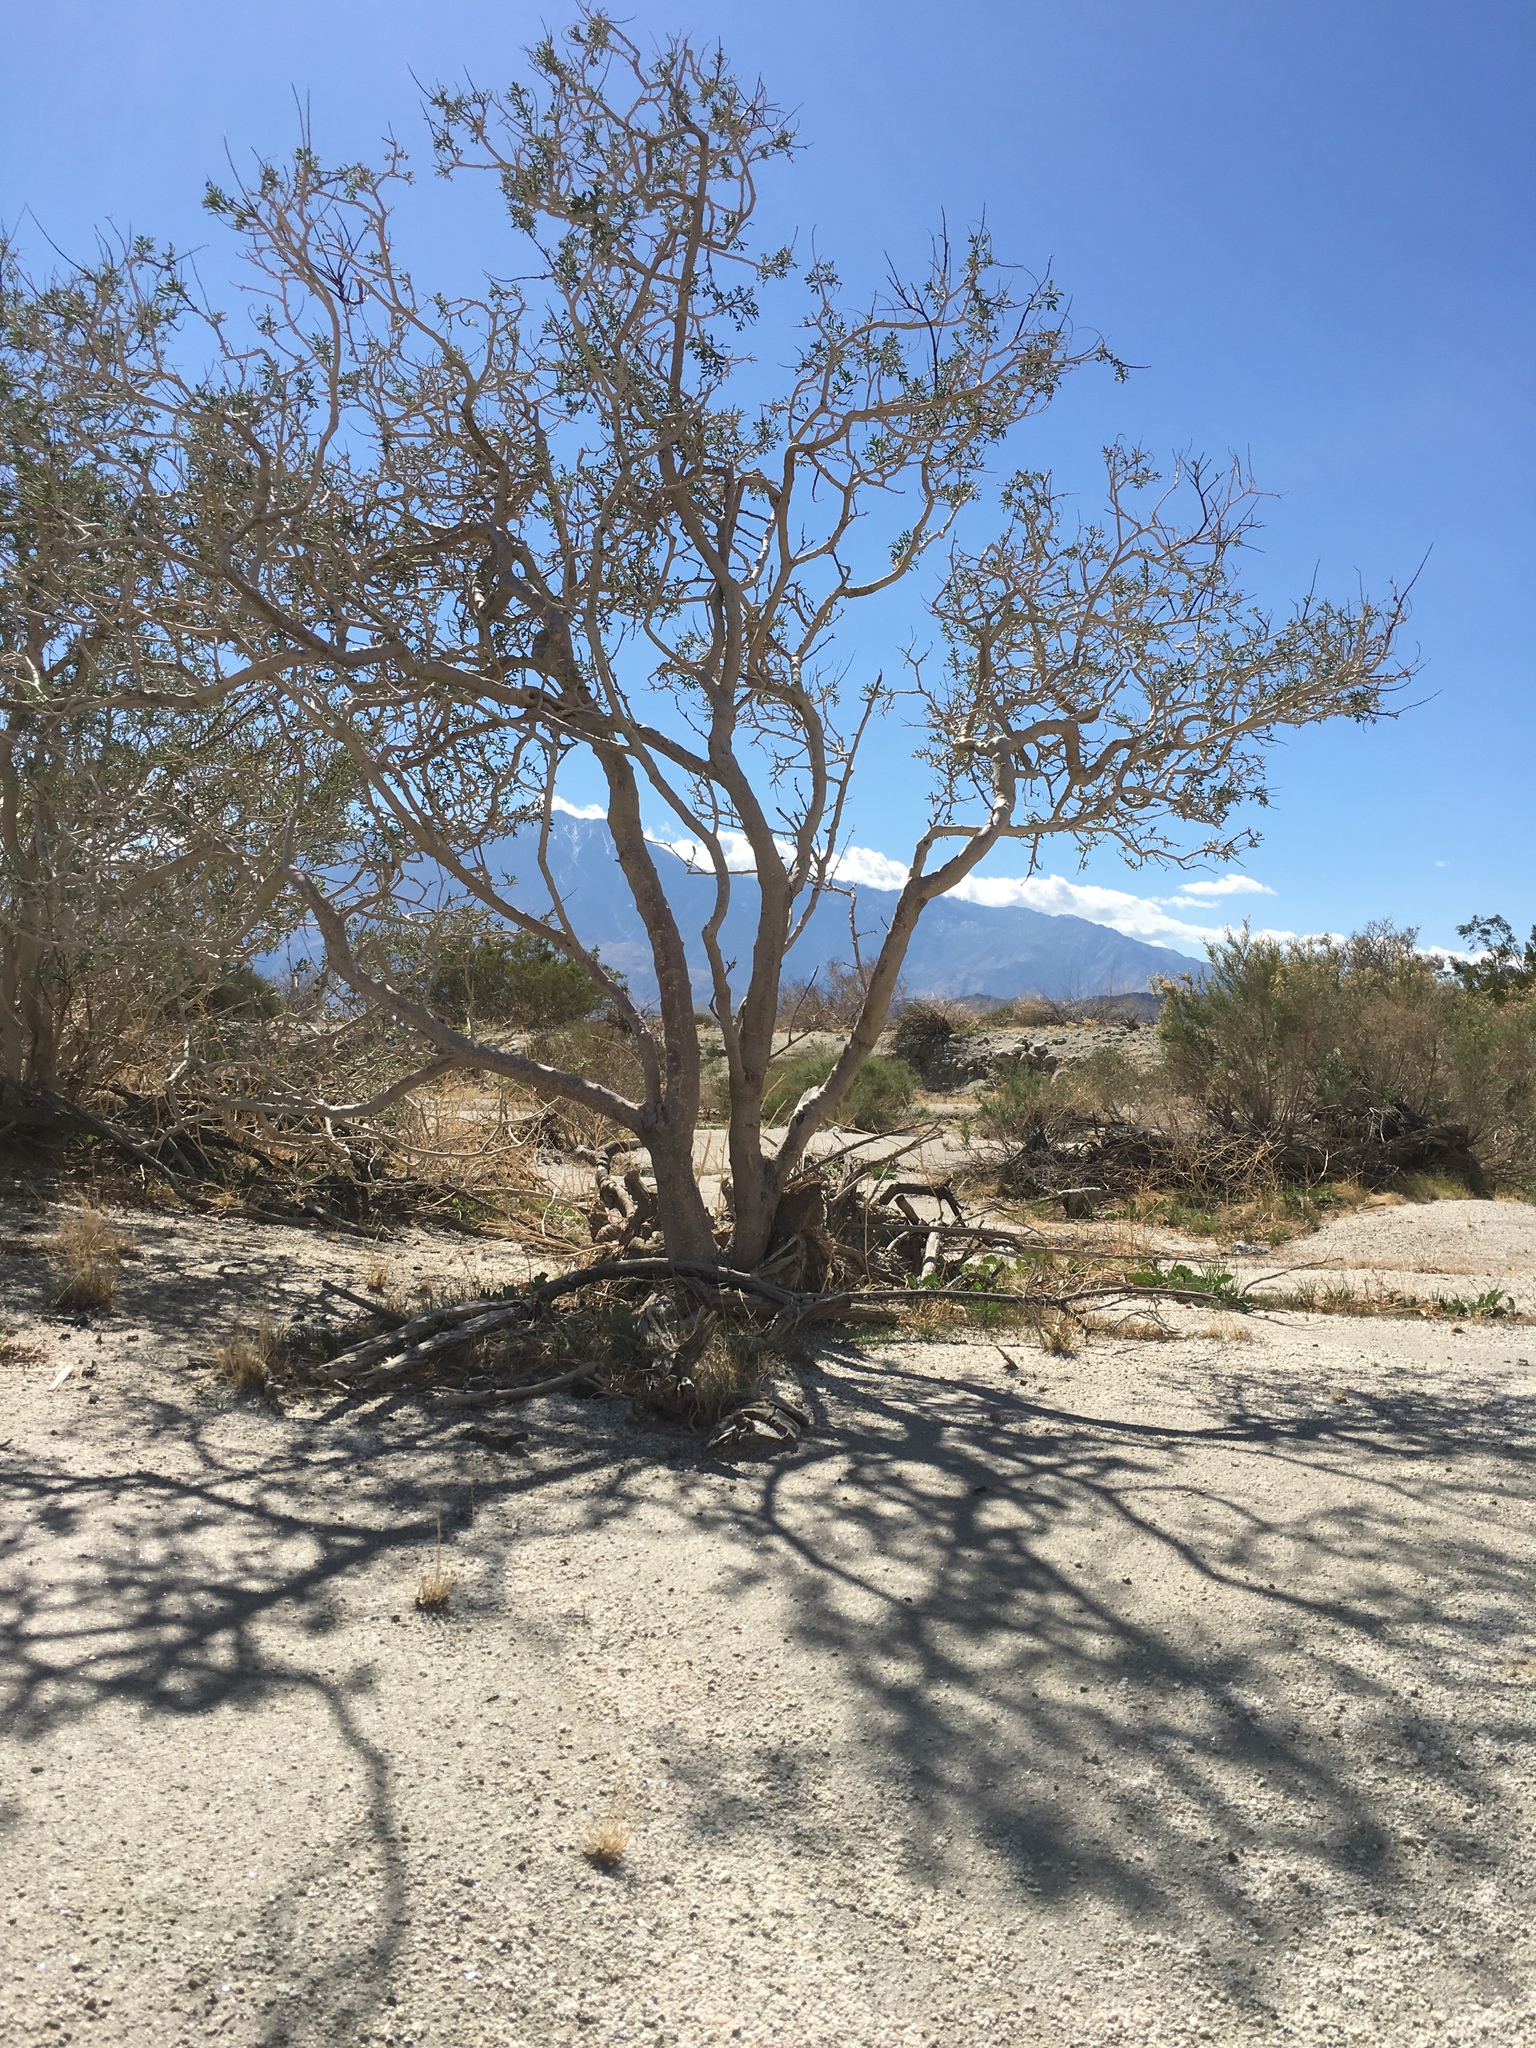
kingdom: Plantae
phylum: Tracheophyta
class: Magnoliopsida
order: Fabales
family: Fabaceae
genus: Psorothamnus
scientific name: Psorothamnus arborescens
